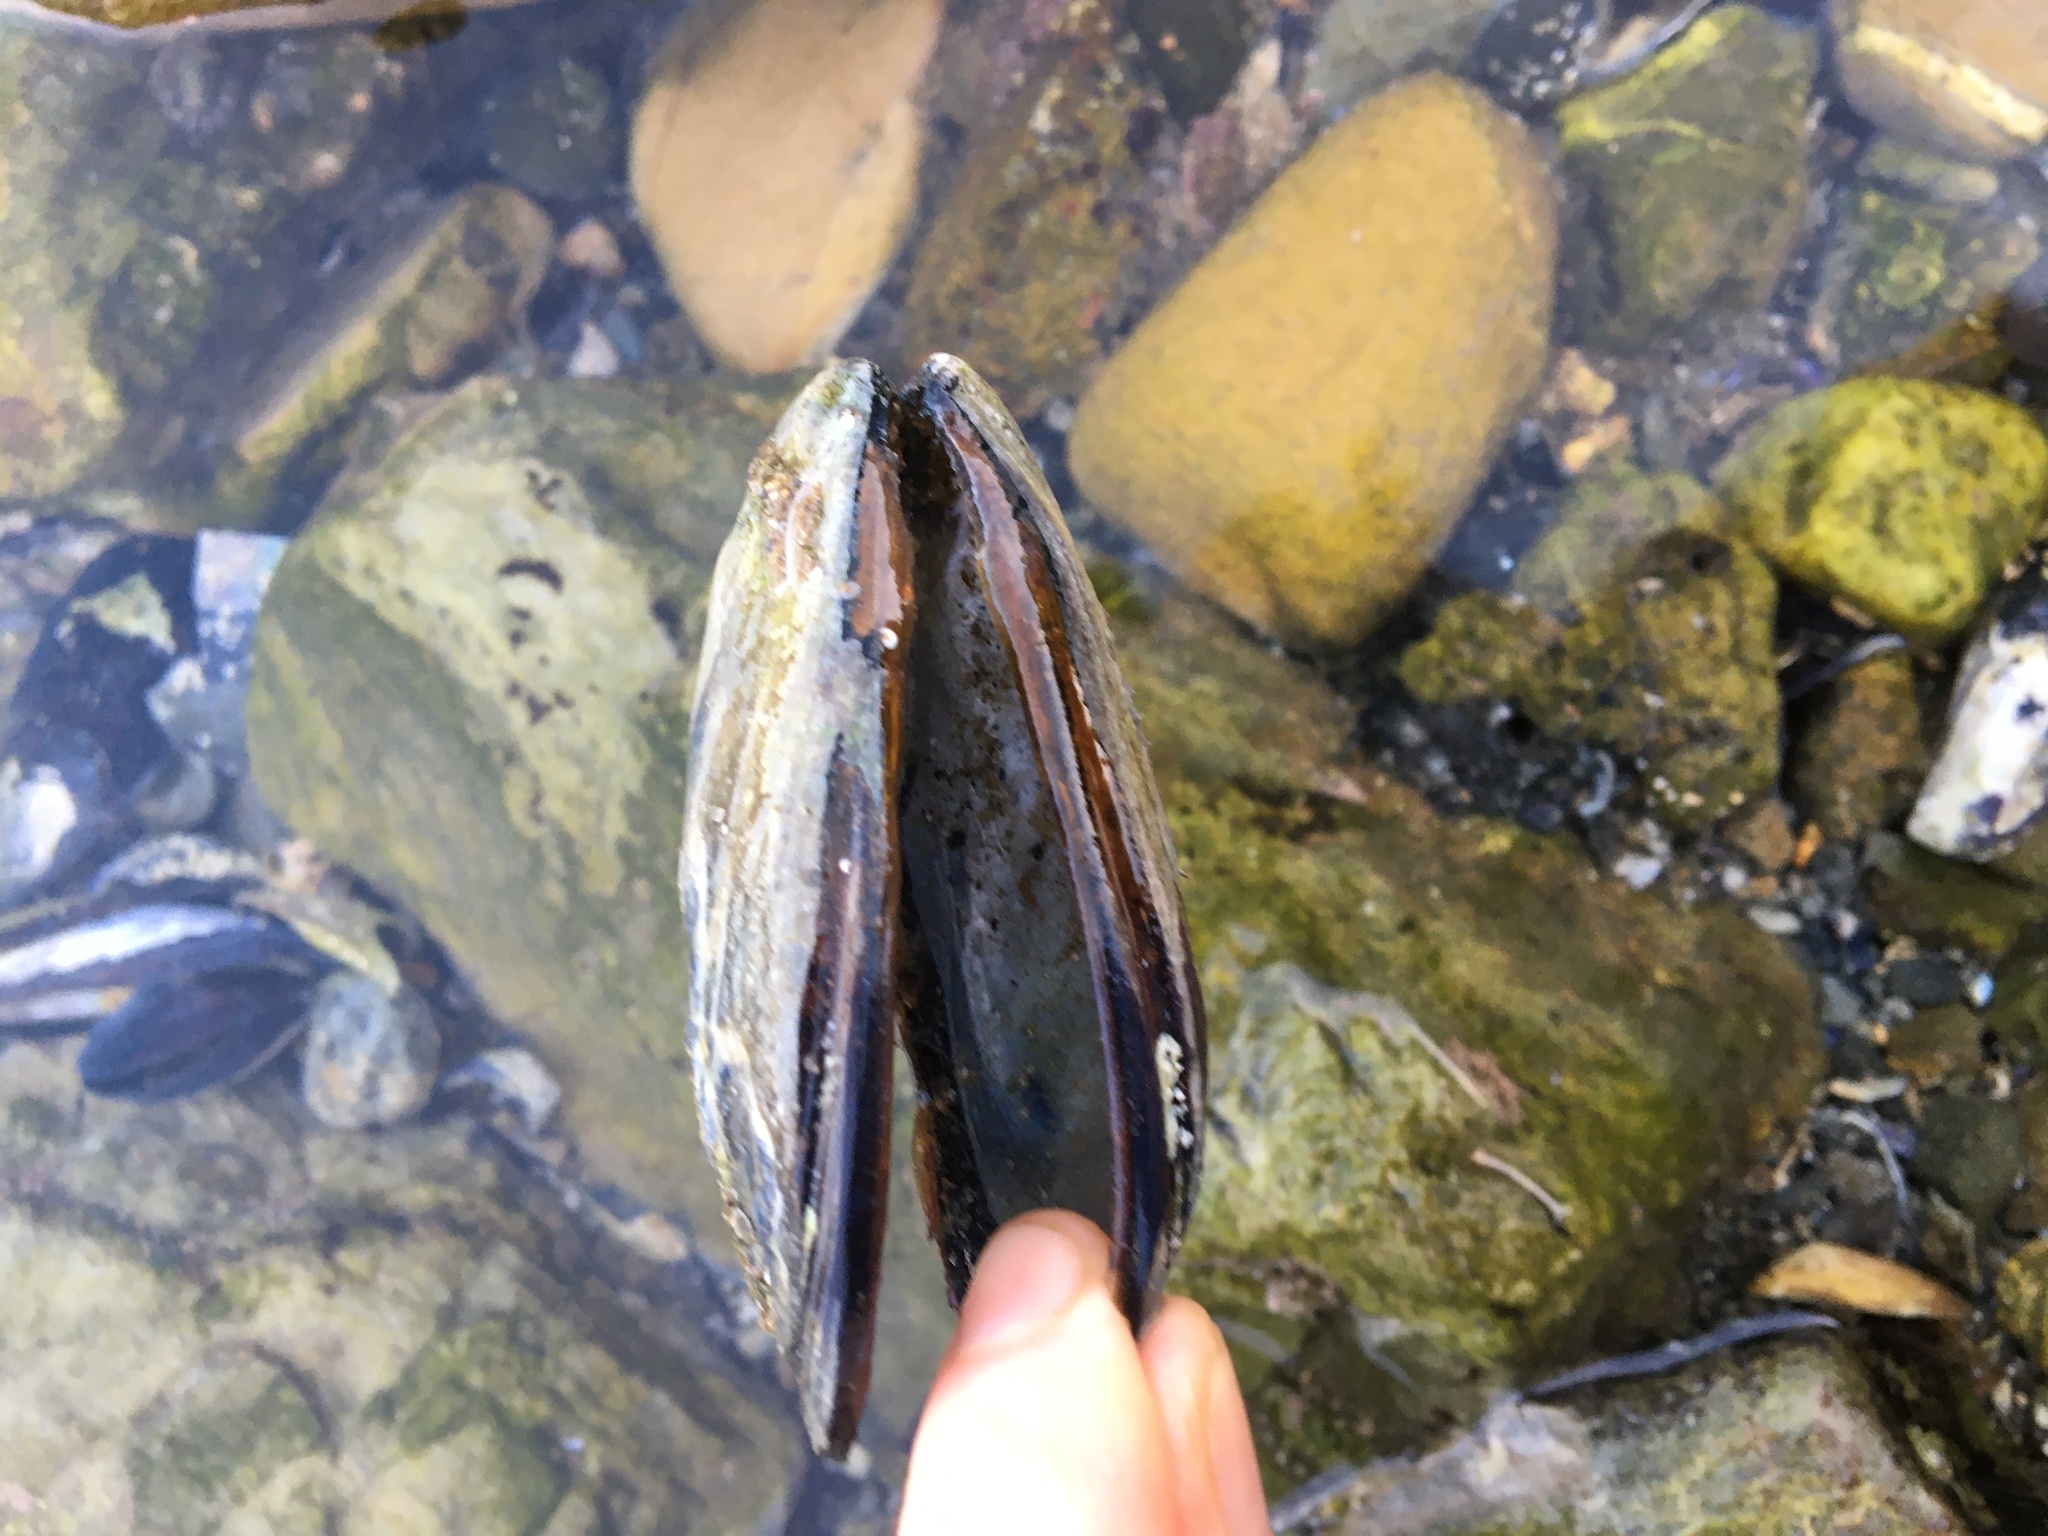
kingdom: Animalia
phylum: Mollusca
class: Bivalvia
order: Mytilida
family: Mytilidae
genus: Mytilus
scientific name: Mytilus californianus
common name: California mussel
